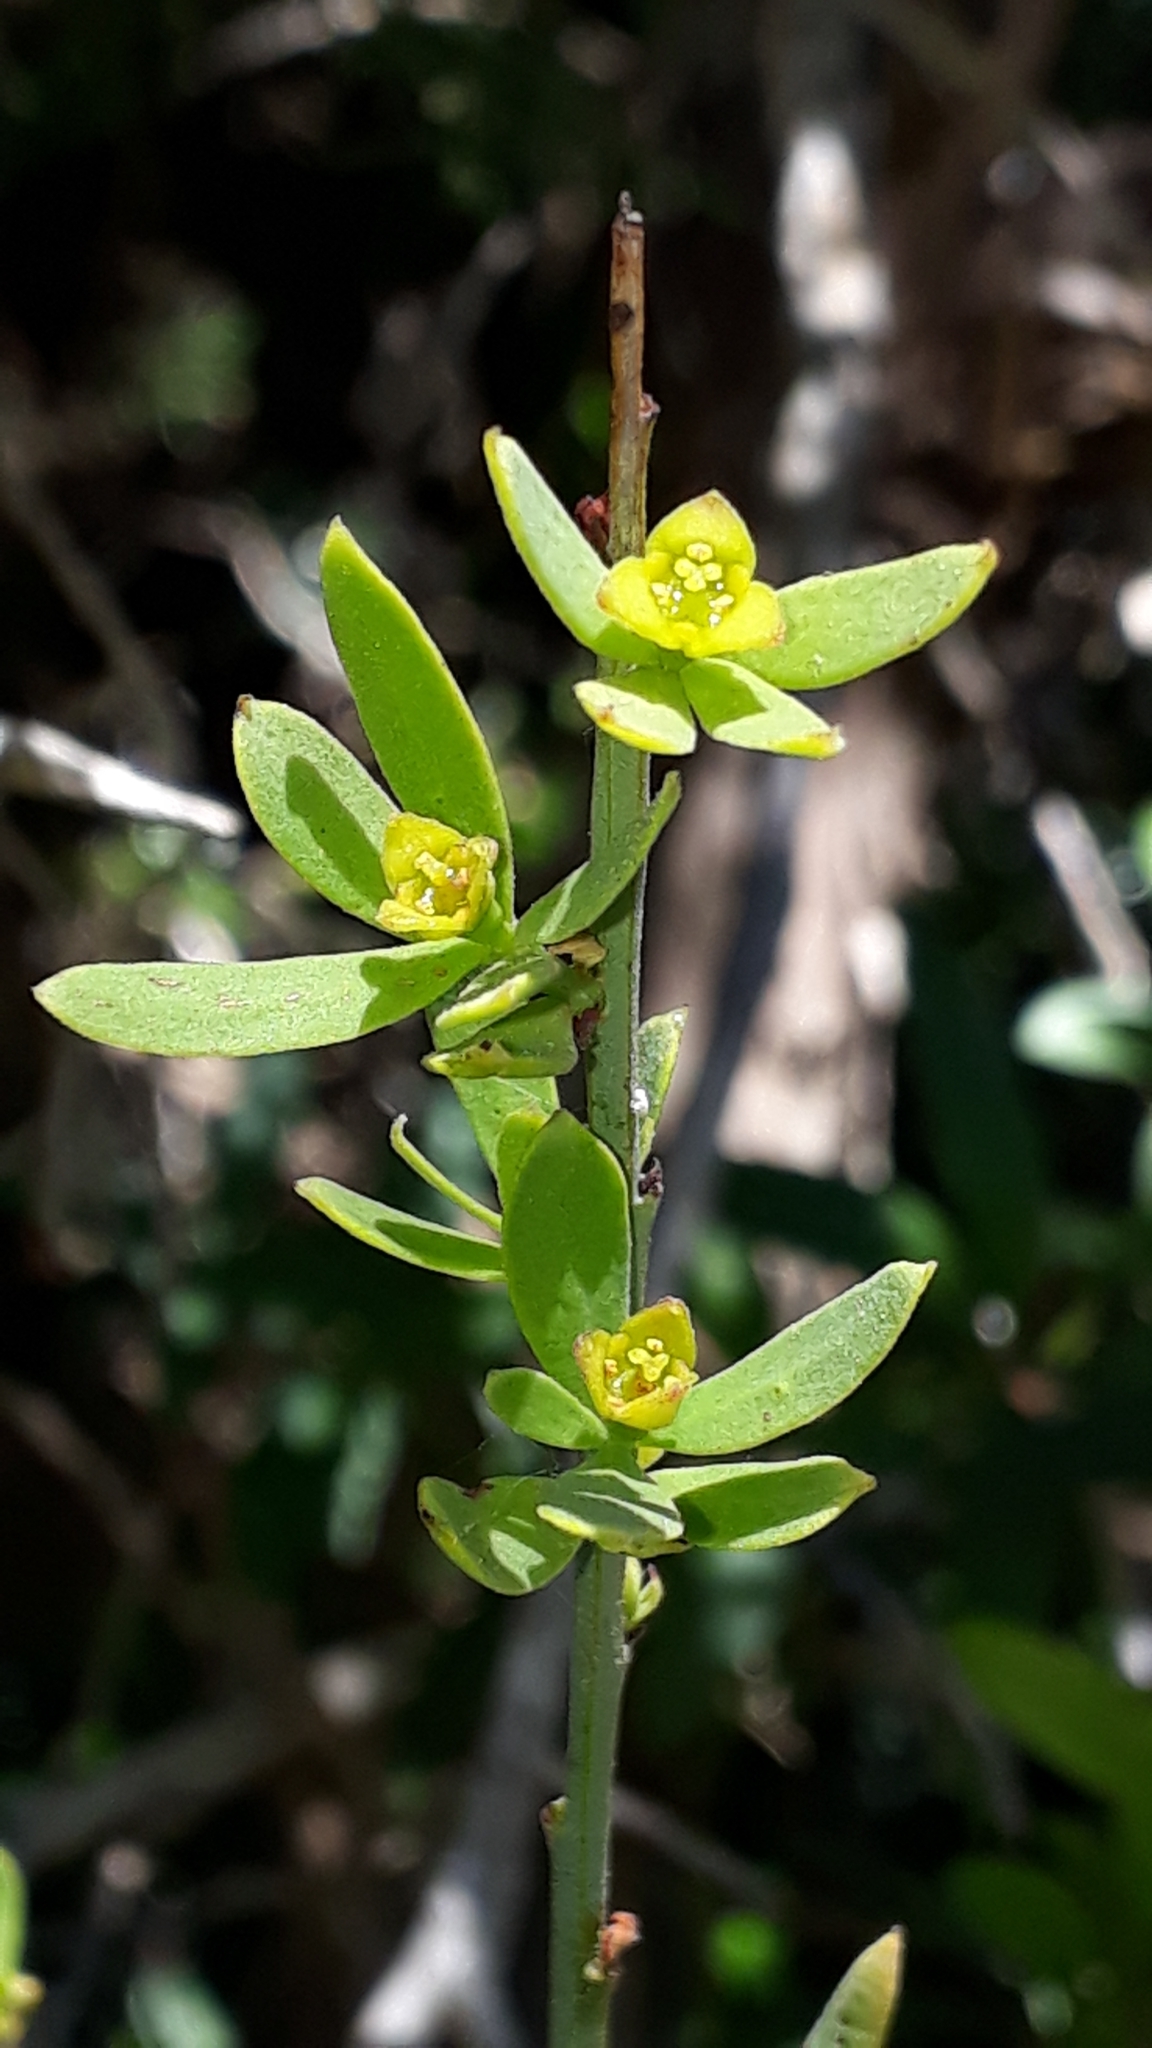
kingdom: Plantae
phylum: Tracheophyta
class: Magnoliopsida
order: Santalales
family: Santalaceae
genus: Osyris
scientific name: Osyris alba
